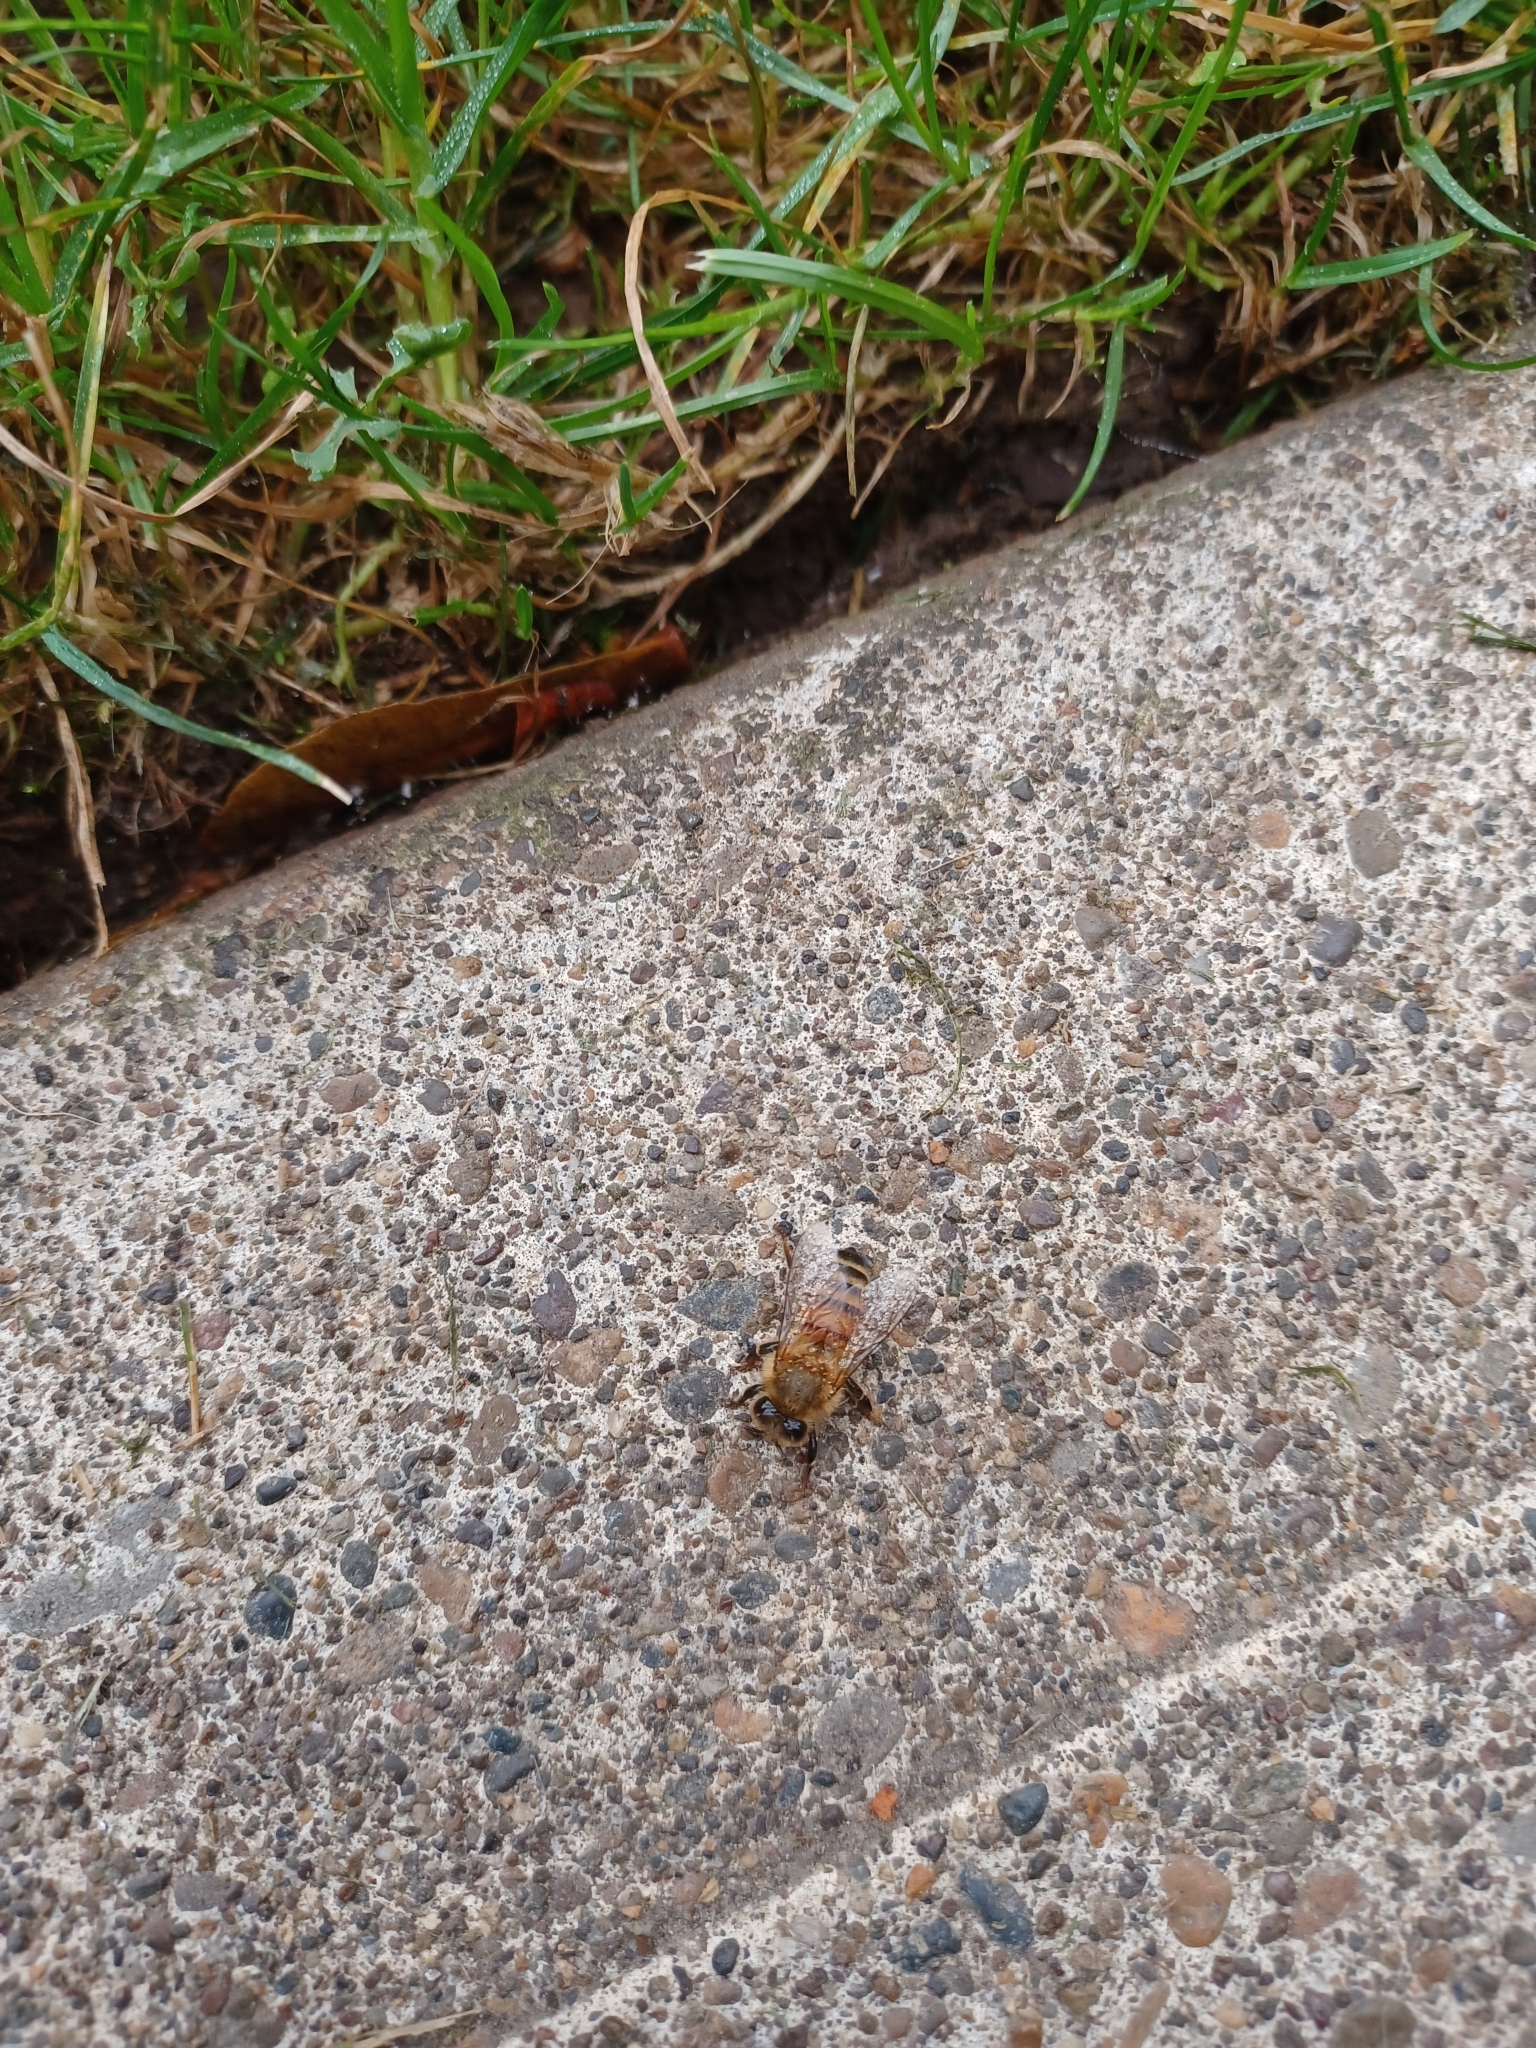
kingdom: Animalia
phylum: Arthropoda
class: Insecta
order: Hymenoptera
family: Apidae
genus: Apis
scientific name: Apis mellifera
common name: Honey bee
